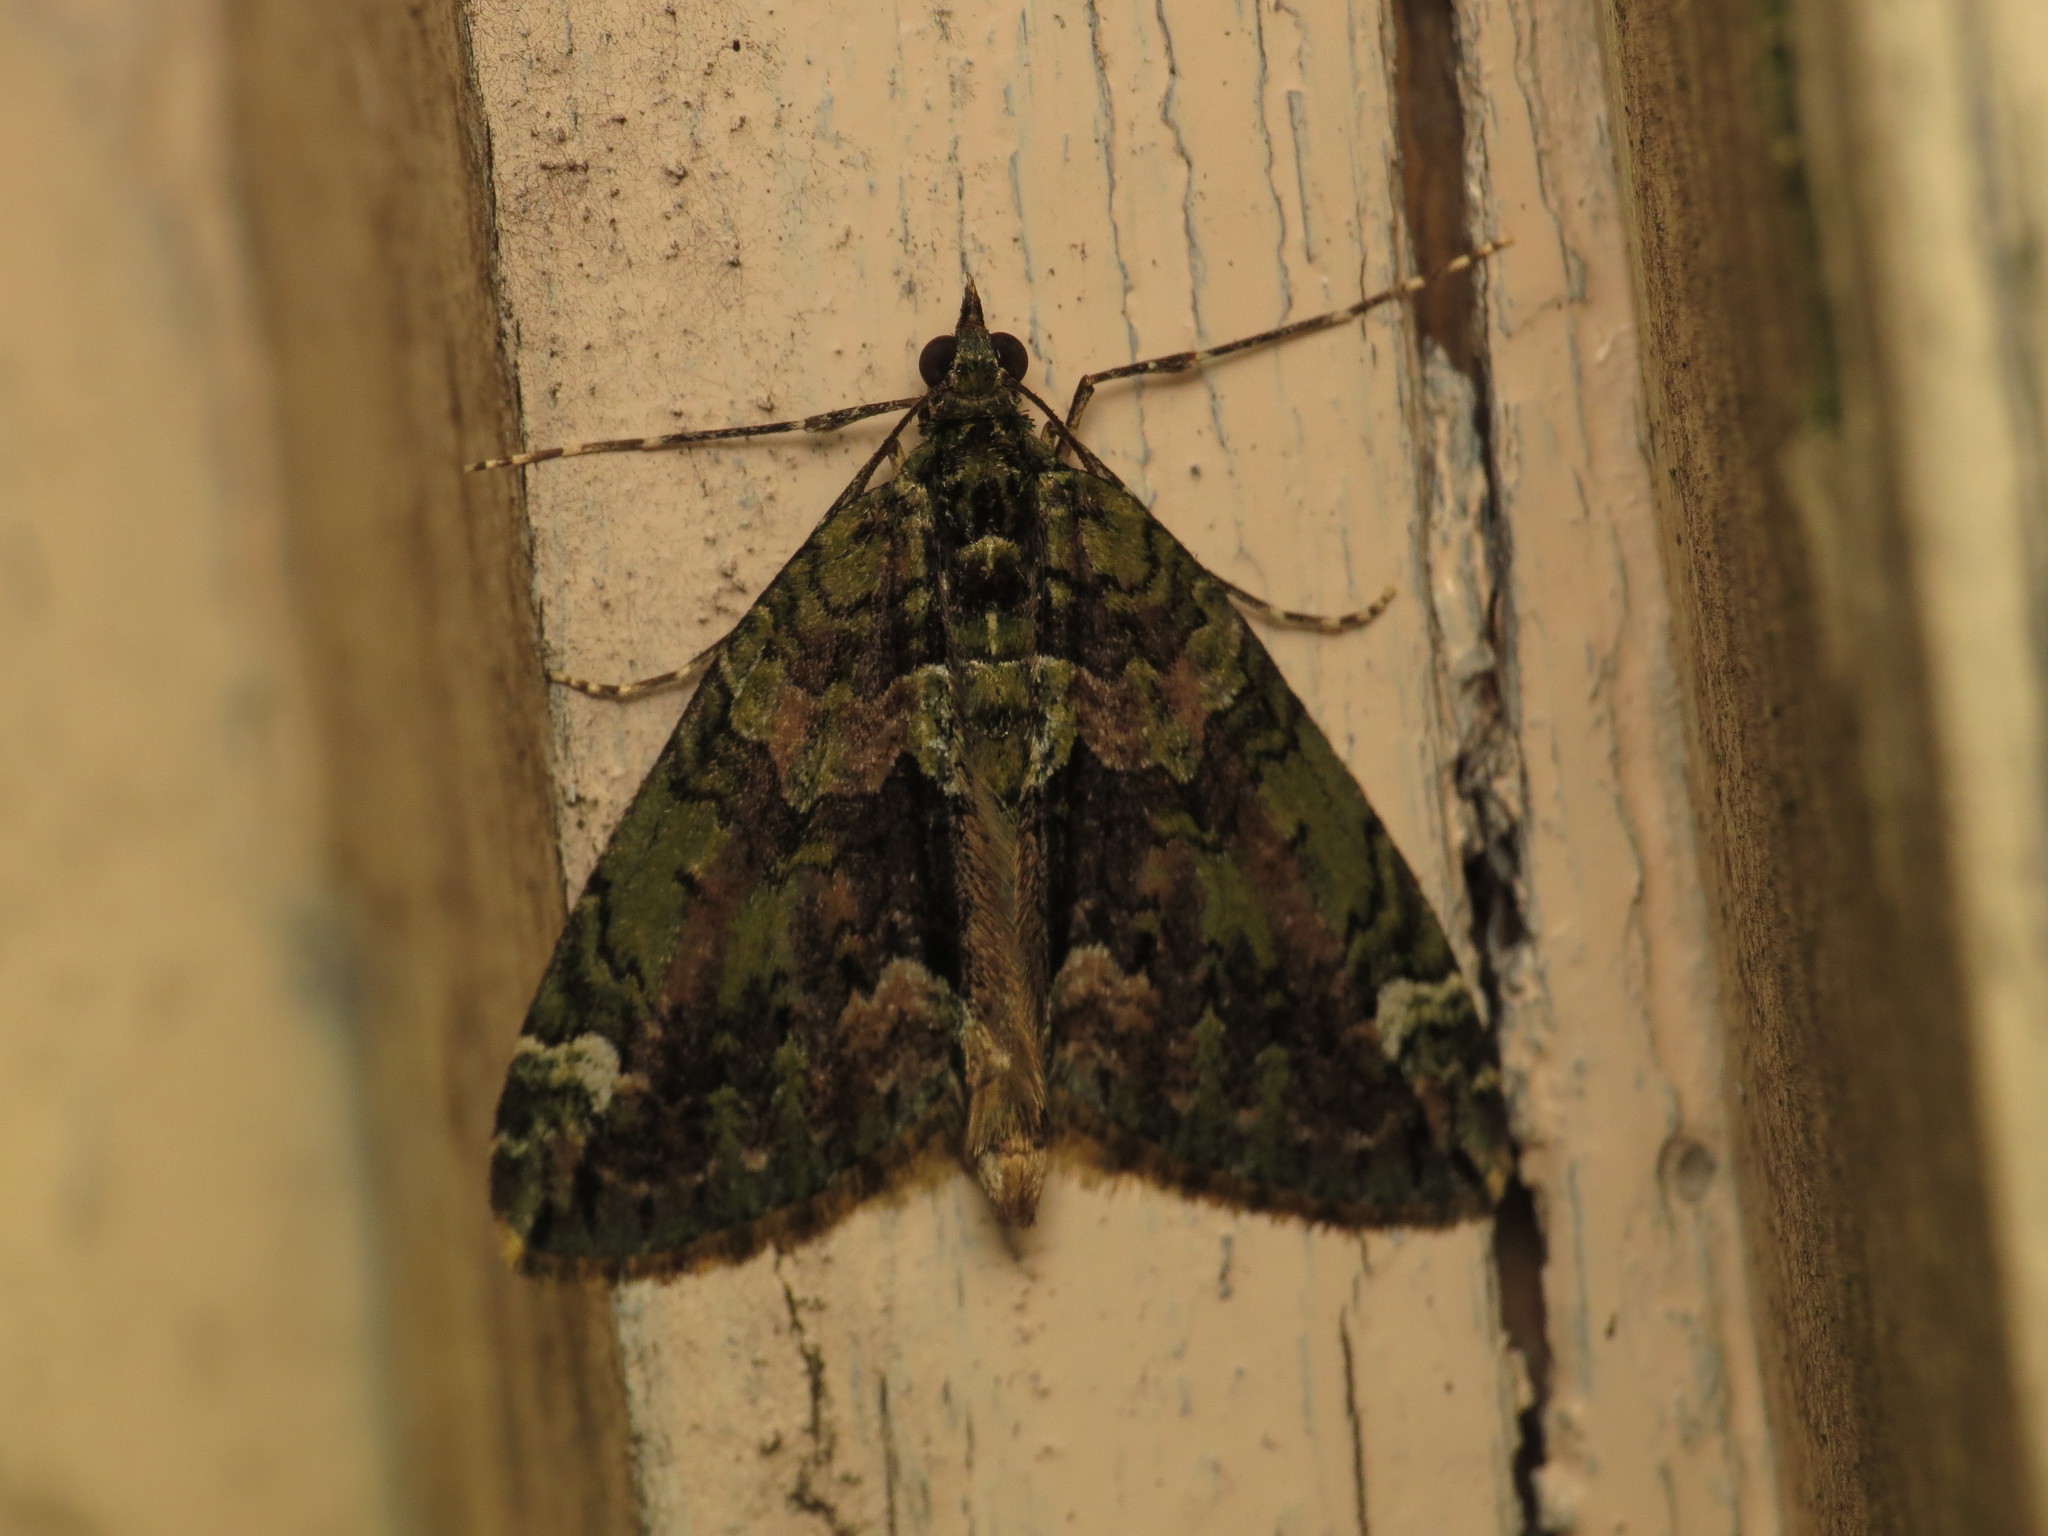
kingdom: Animalia
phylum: Arthropoda
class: Insecta
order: Lepidoptera
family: Geometridae
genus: Chloroclysta
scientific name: Chloroclysta siterata
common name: Red-green carpet
